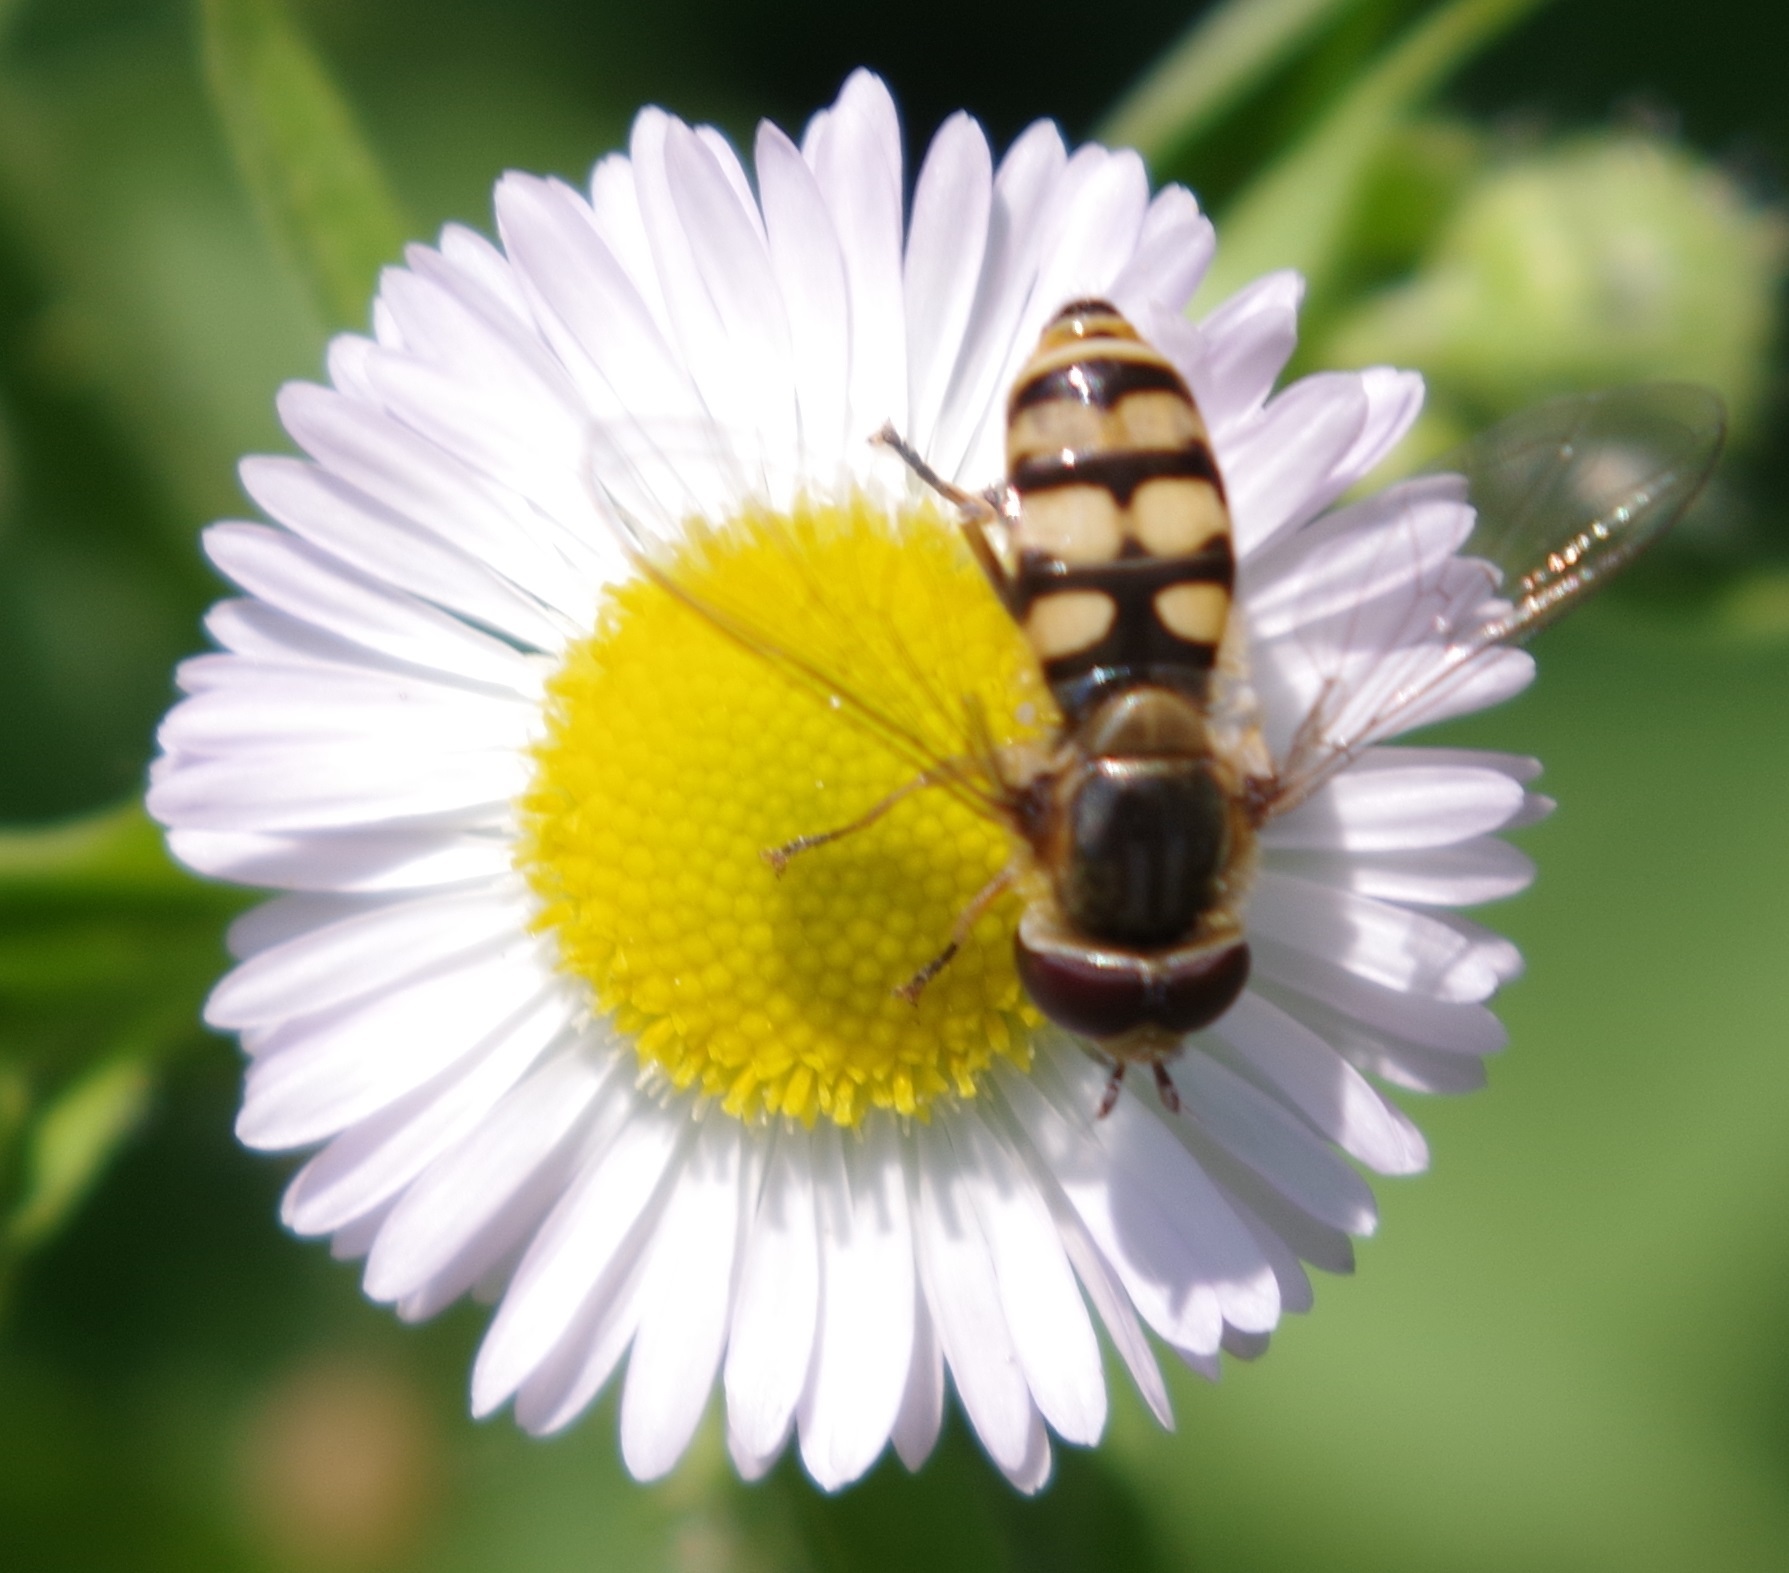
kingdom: Animalia
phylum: Arthropoda
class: Insecta
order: Diptera
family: Syrphidae
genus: Eupeodes
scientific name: Eupeodes corollae
